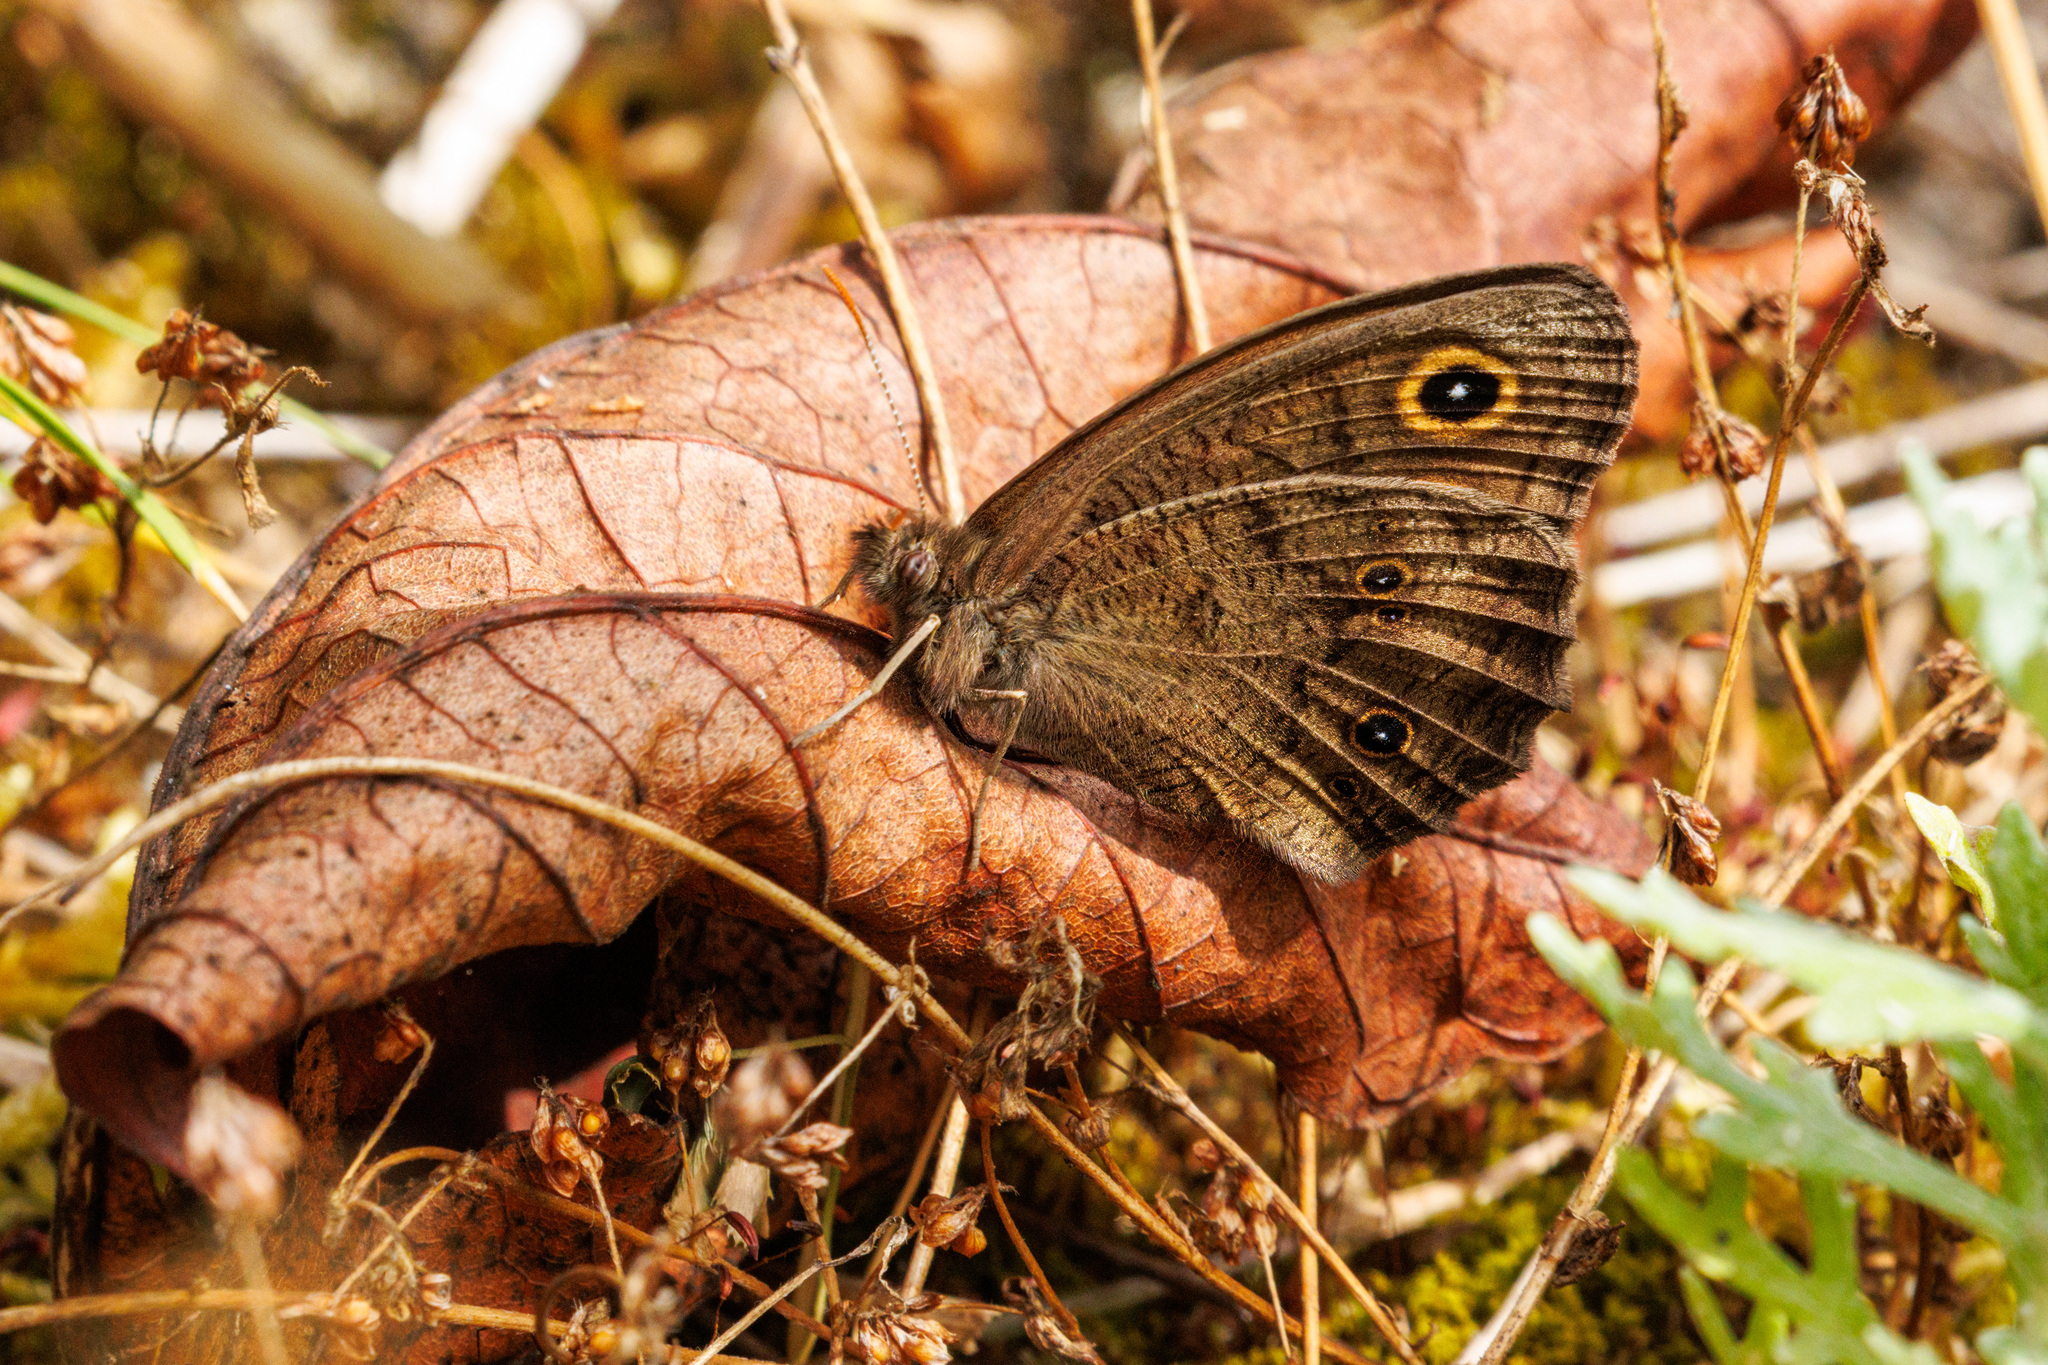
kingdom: Animalia
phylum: Arthropoda
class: Insecta
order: Lepidoptera
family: Nymphalidae
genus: Cercyonis
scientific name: Cercyonis pegala
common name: Common wood-nymph
